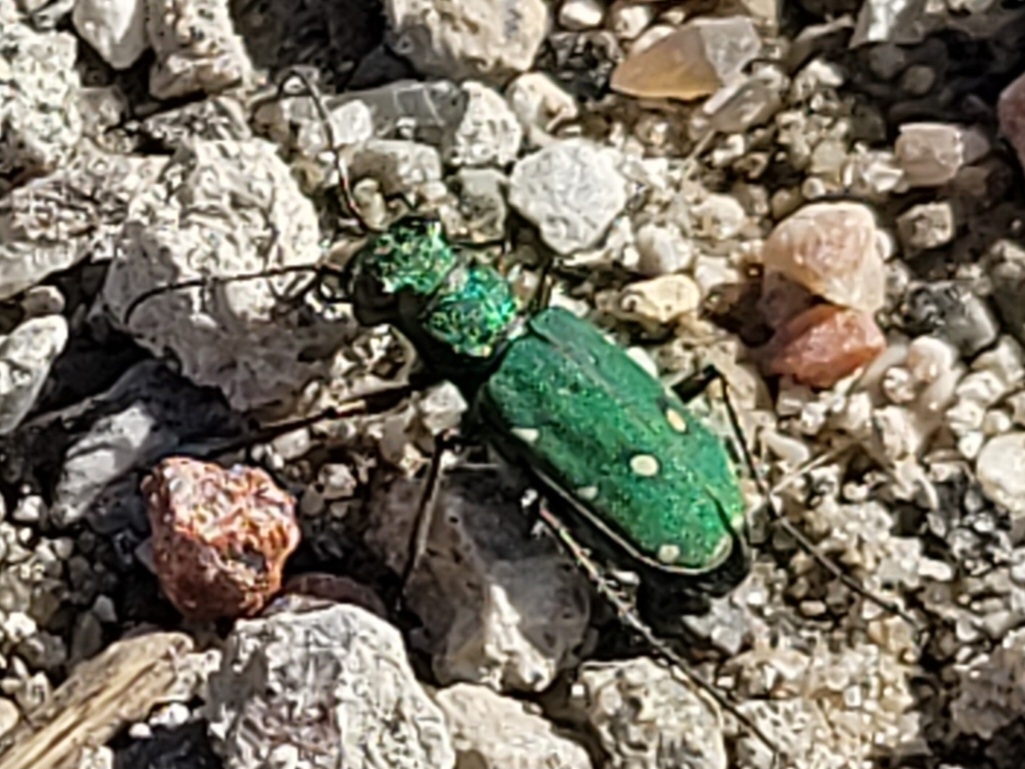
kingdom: Animalia
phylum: Arthropoda
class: Insecta
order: Coleoptera
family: Carabidae
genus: Cicindela
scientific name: Cicindela campestris
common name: Common tiger beetle
